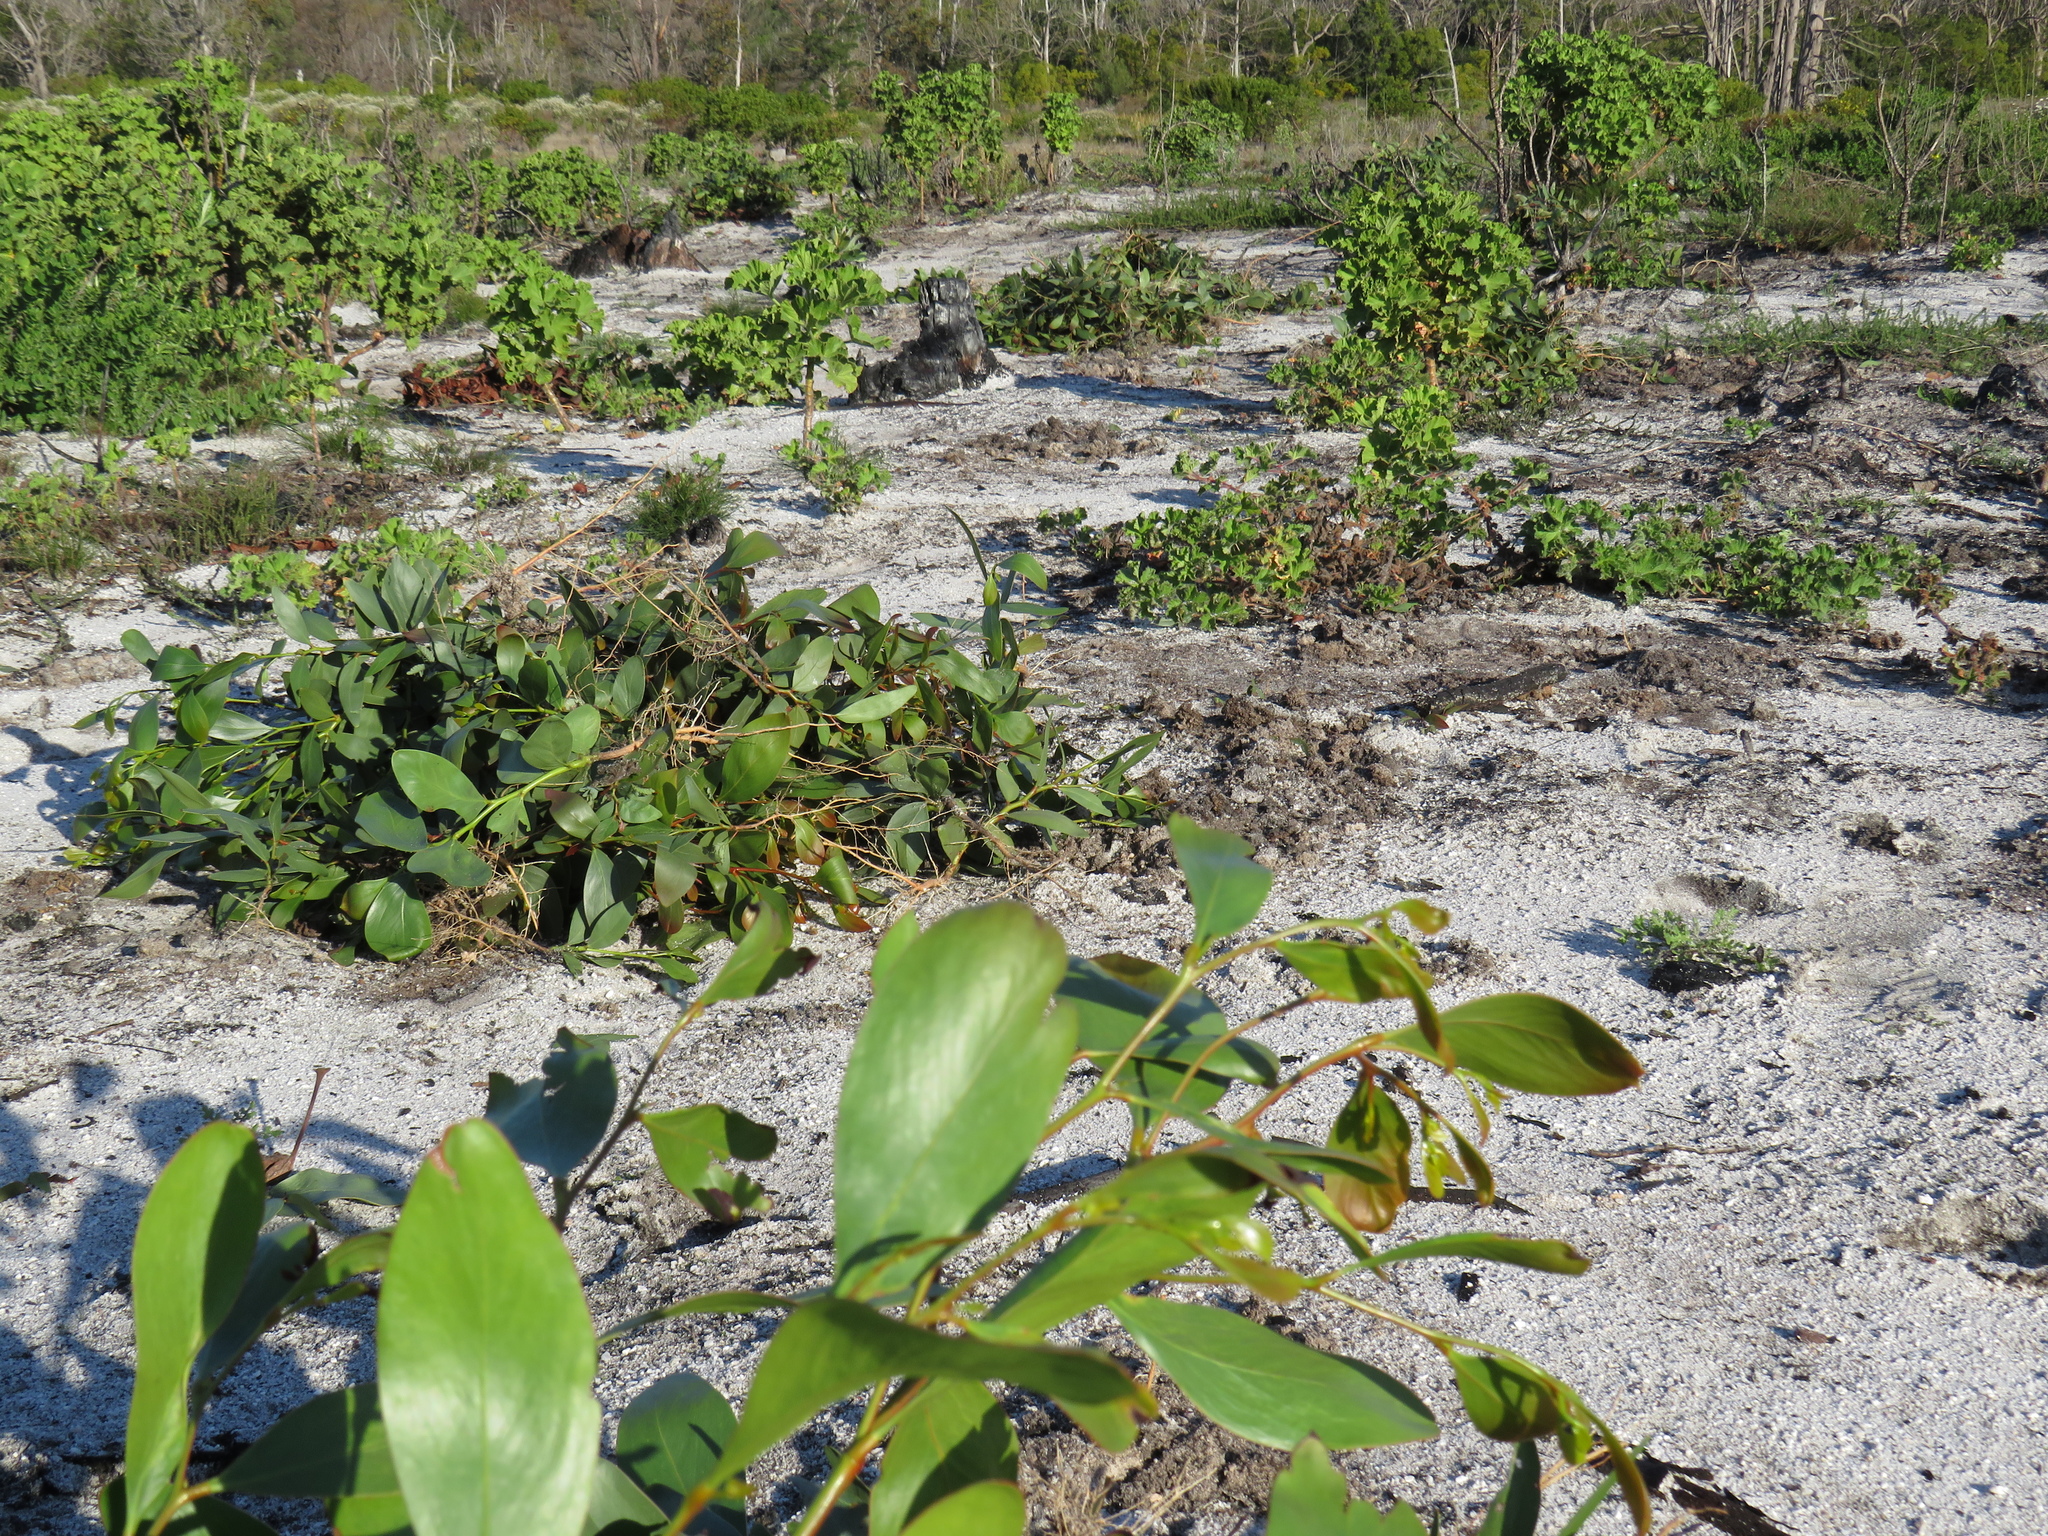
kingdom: Plantae
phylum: Tracheophyta
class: Magnoliopsida
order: Fabales
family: Fabaceae
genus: Acacia
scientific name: Acacia pycnantha
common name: Golden wattle
